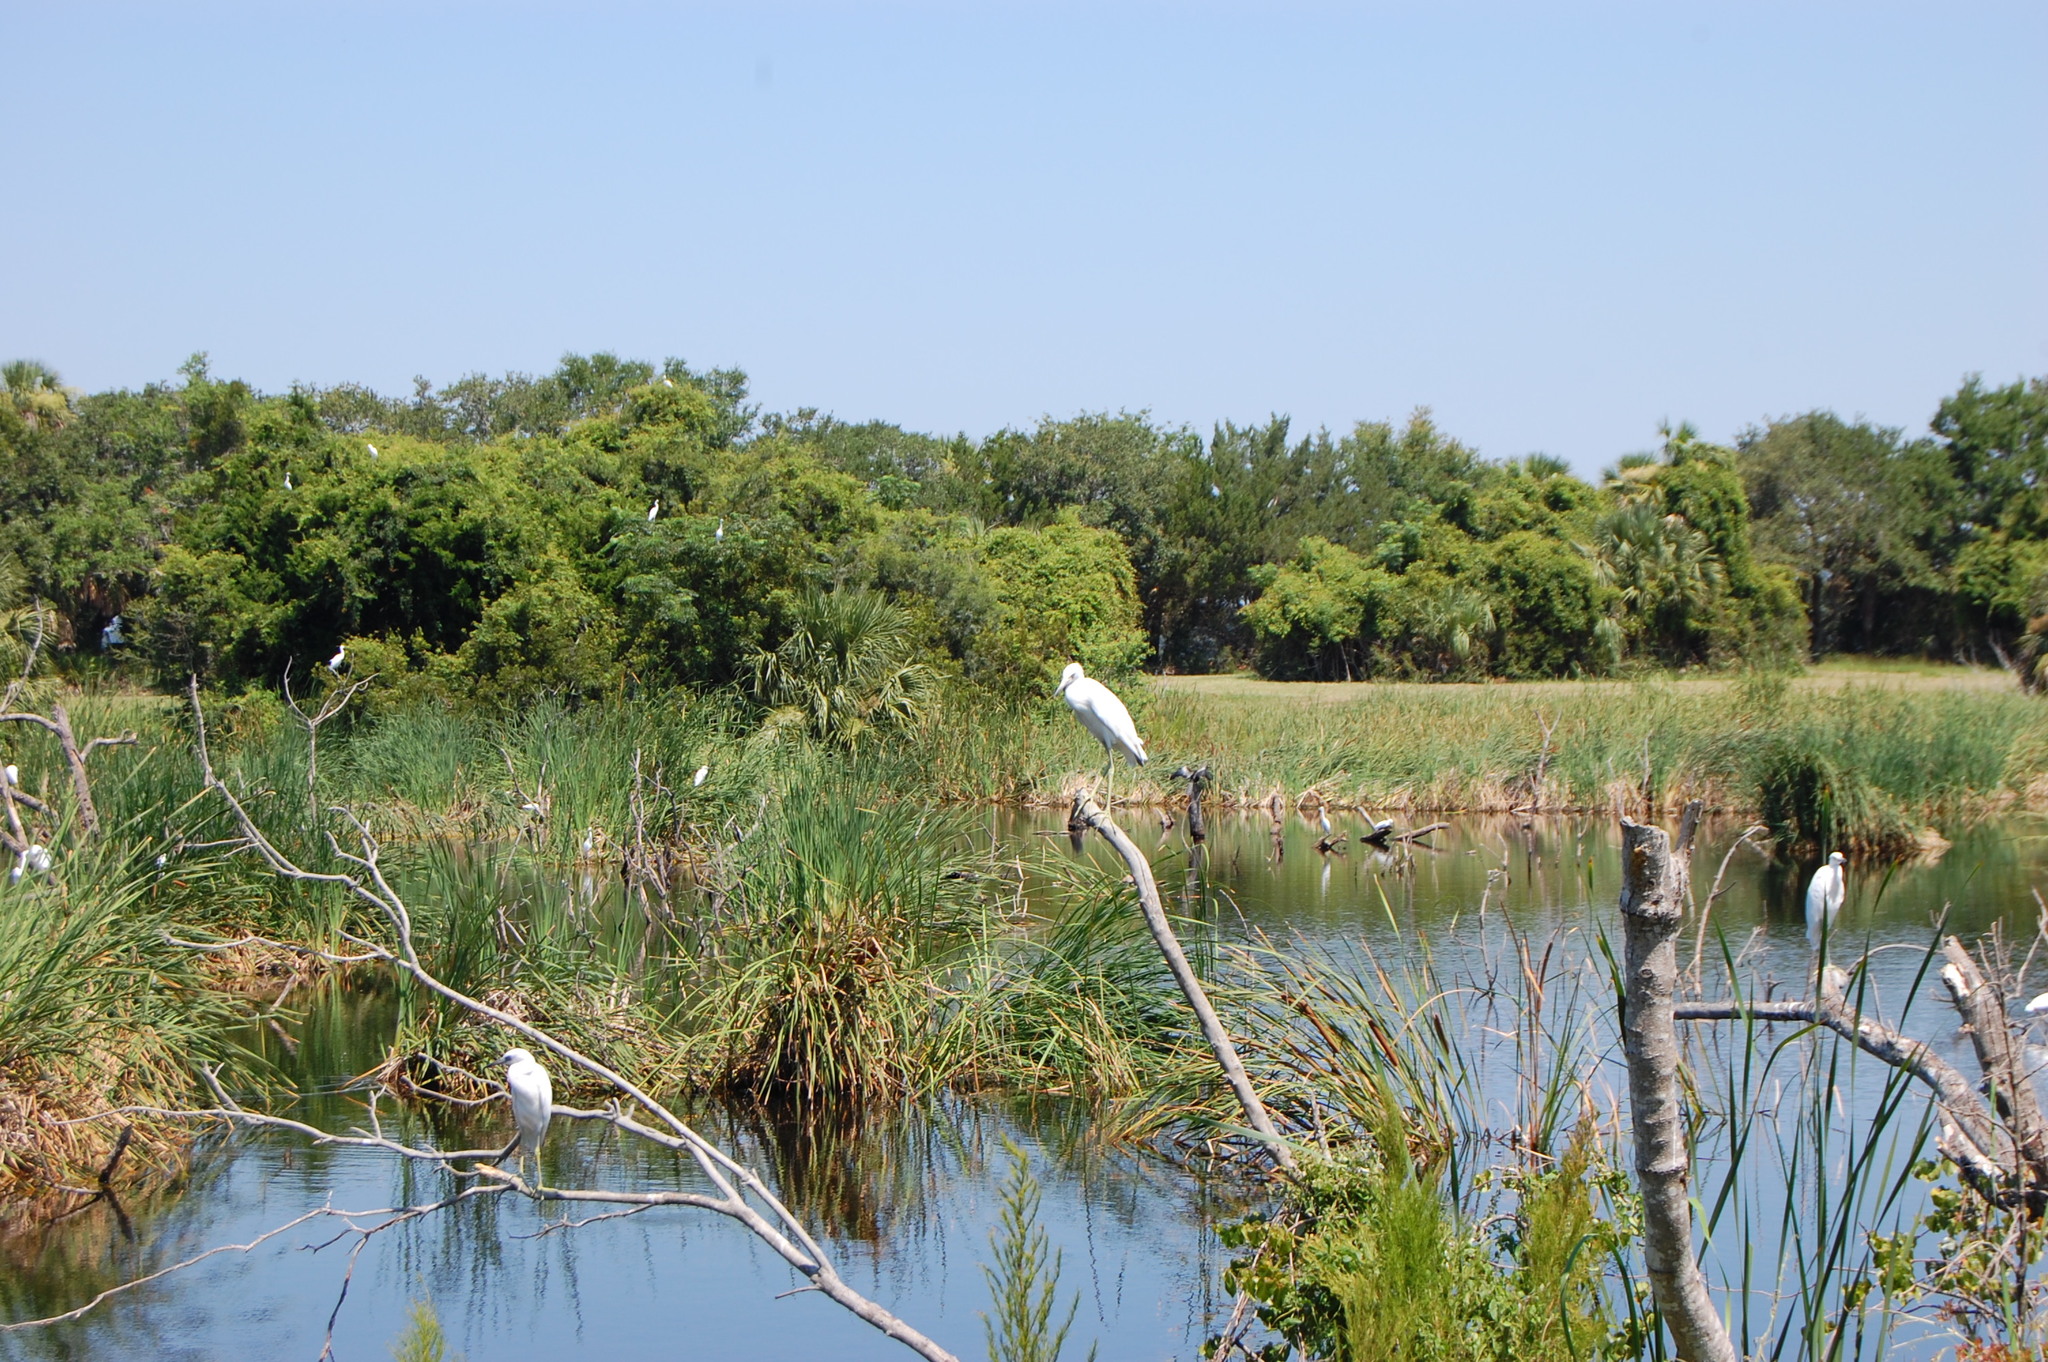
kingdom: Animalia
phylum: Chordata
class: Aves
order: Pelecaniformes
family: Ardeidae
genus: Egretta
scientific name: Egretta caerulea
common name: Little blue heron
